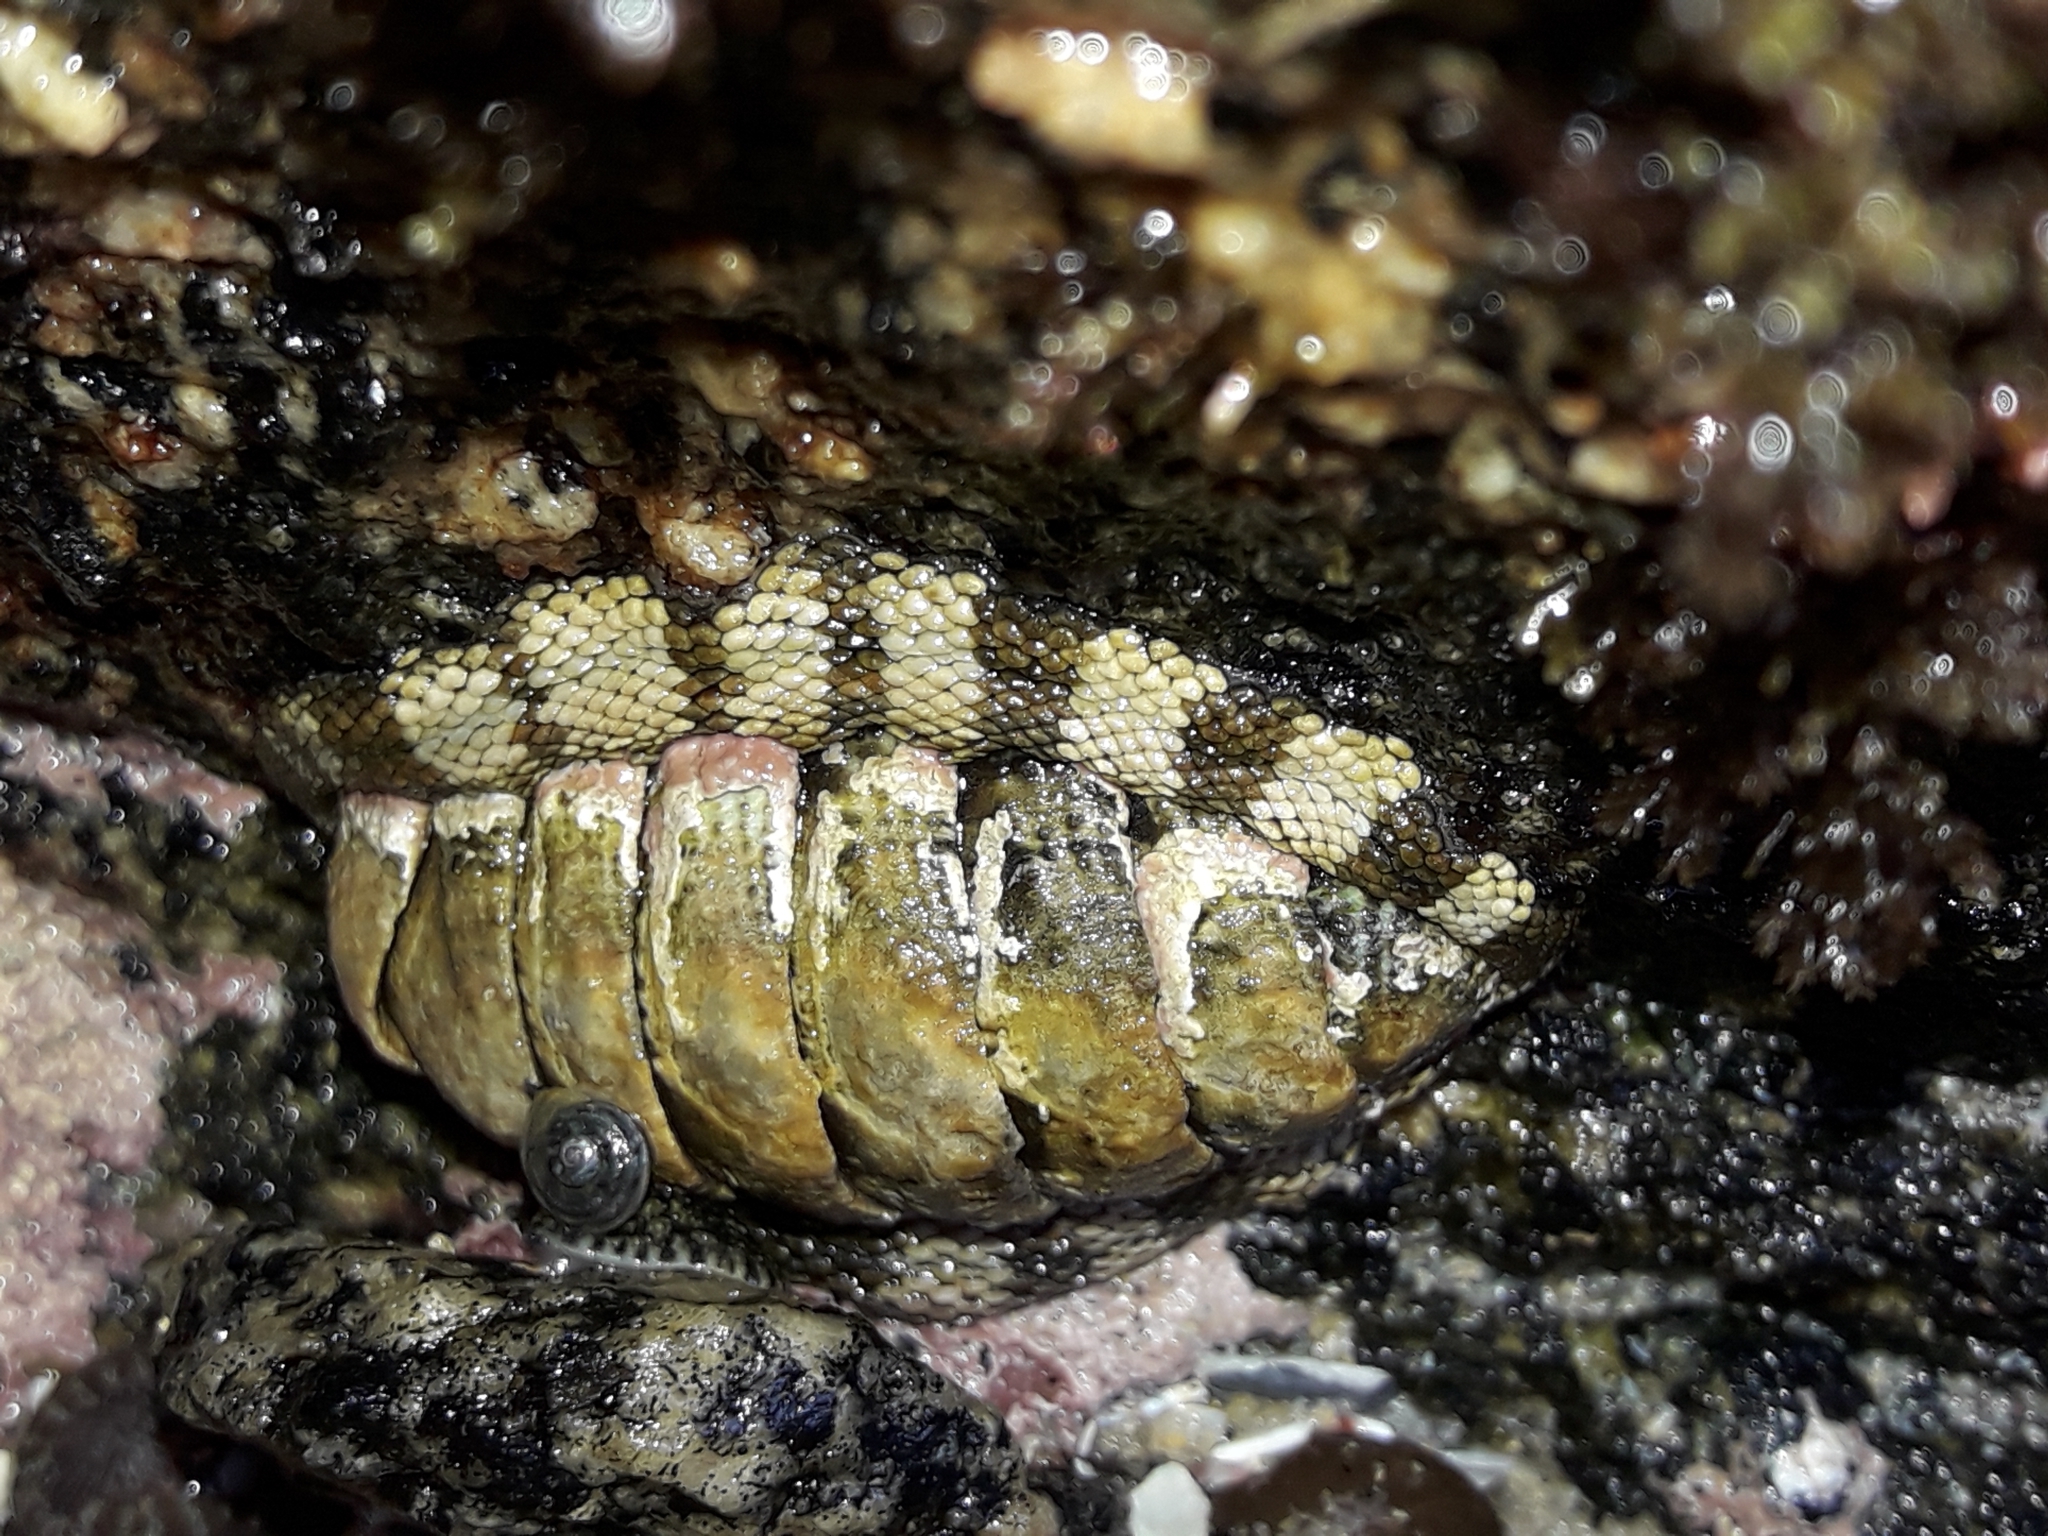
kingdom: Animalia
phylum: Mollusca
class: Polyplacophora
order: Chitonida
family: Chitonidae
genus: Sypharochiton
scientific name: Sypharochiton pelliserpentis
